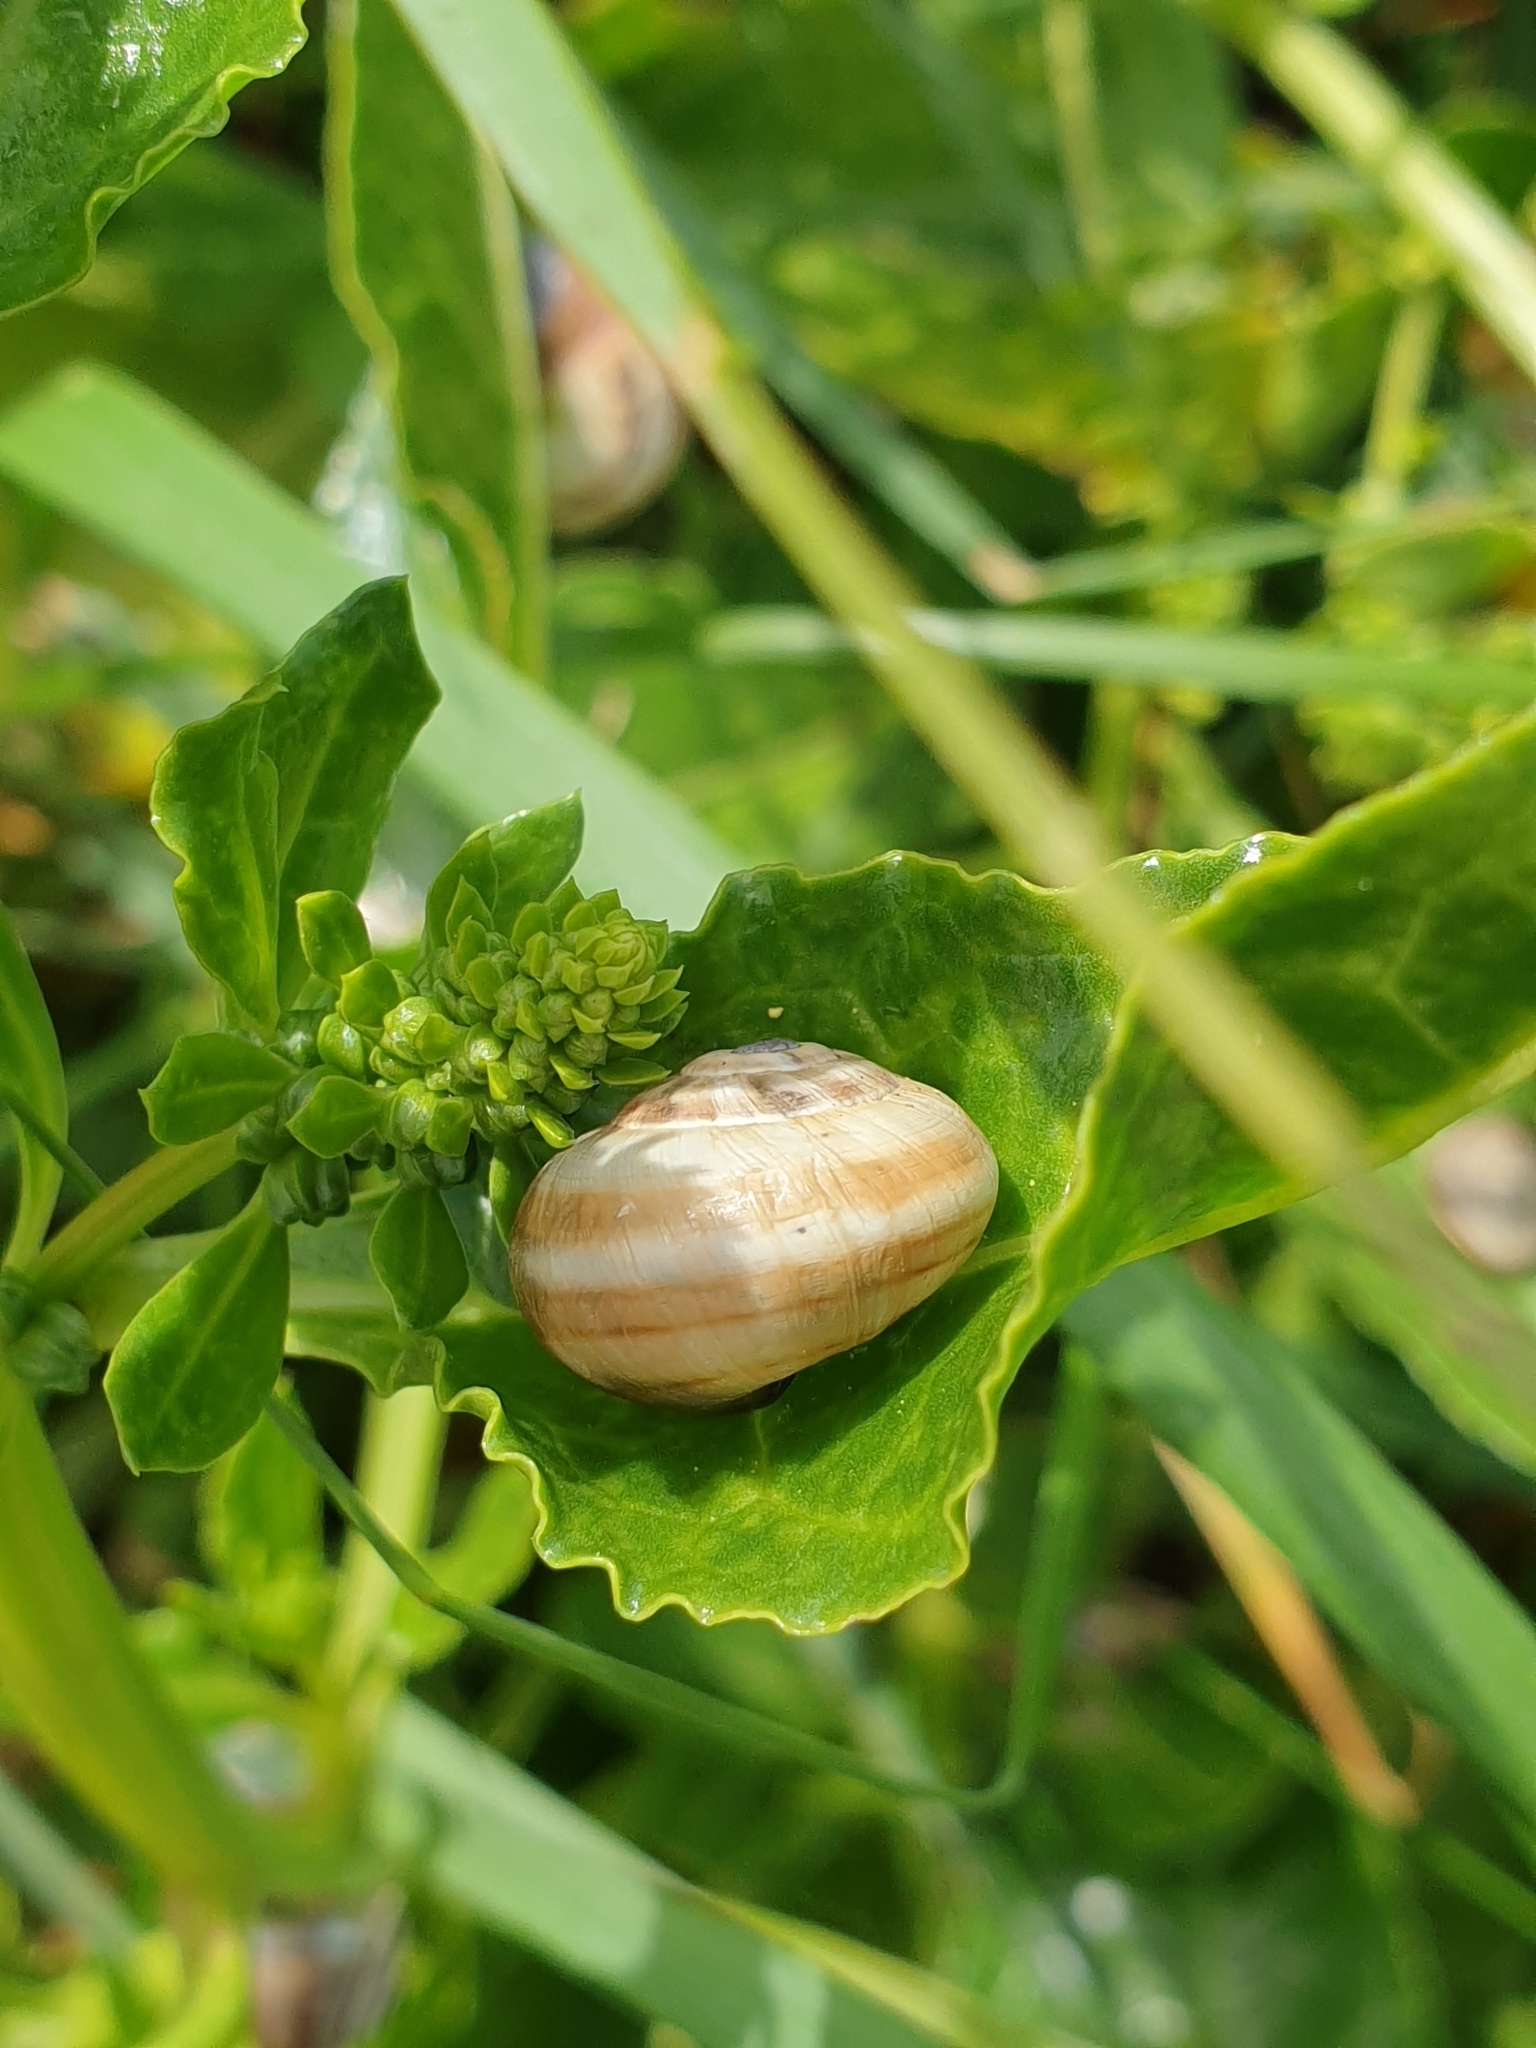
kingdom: Animalia
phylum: Mollusca
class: Gastropoda
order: Stylommatophora
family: Helicidae
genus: Theba
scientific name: Theba pisana
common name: White snail
